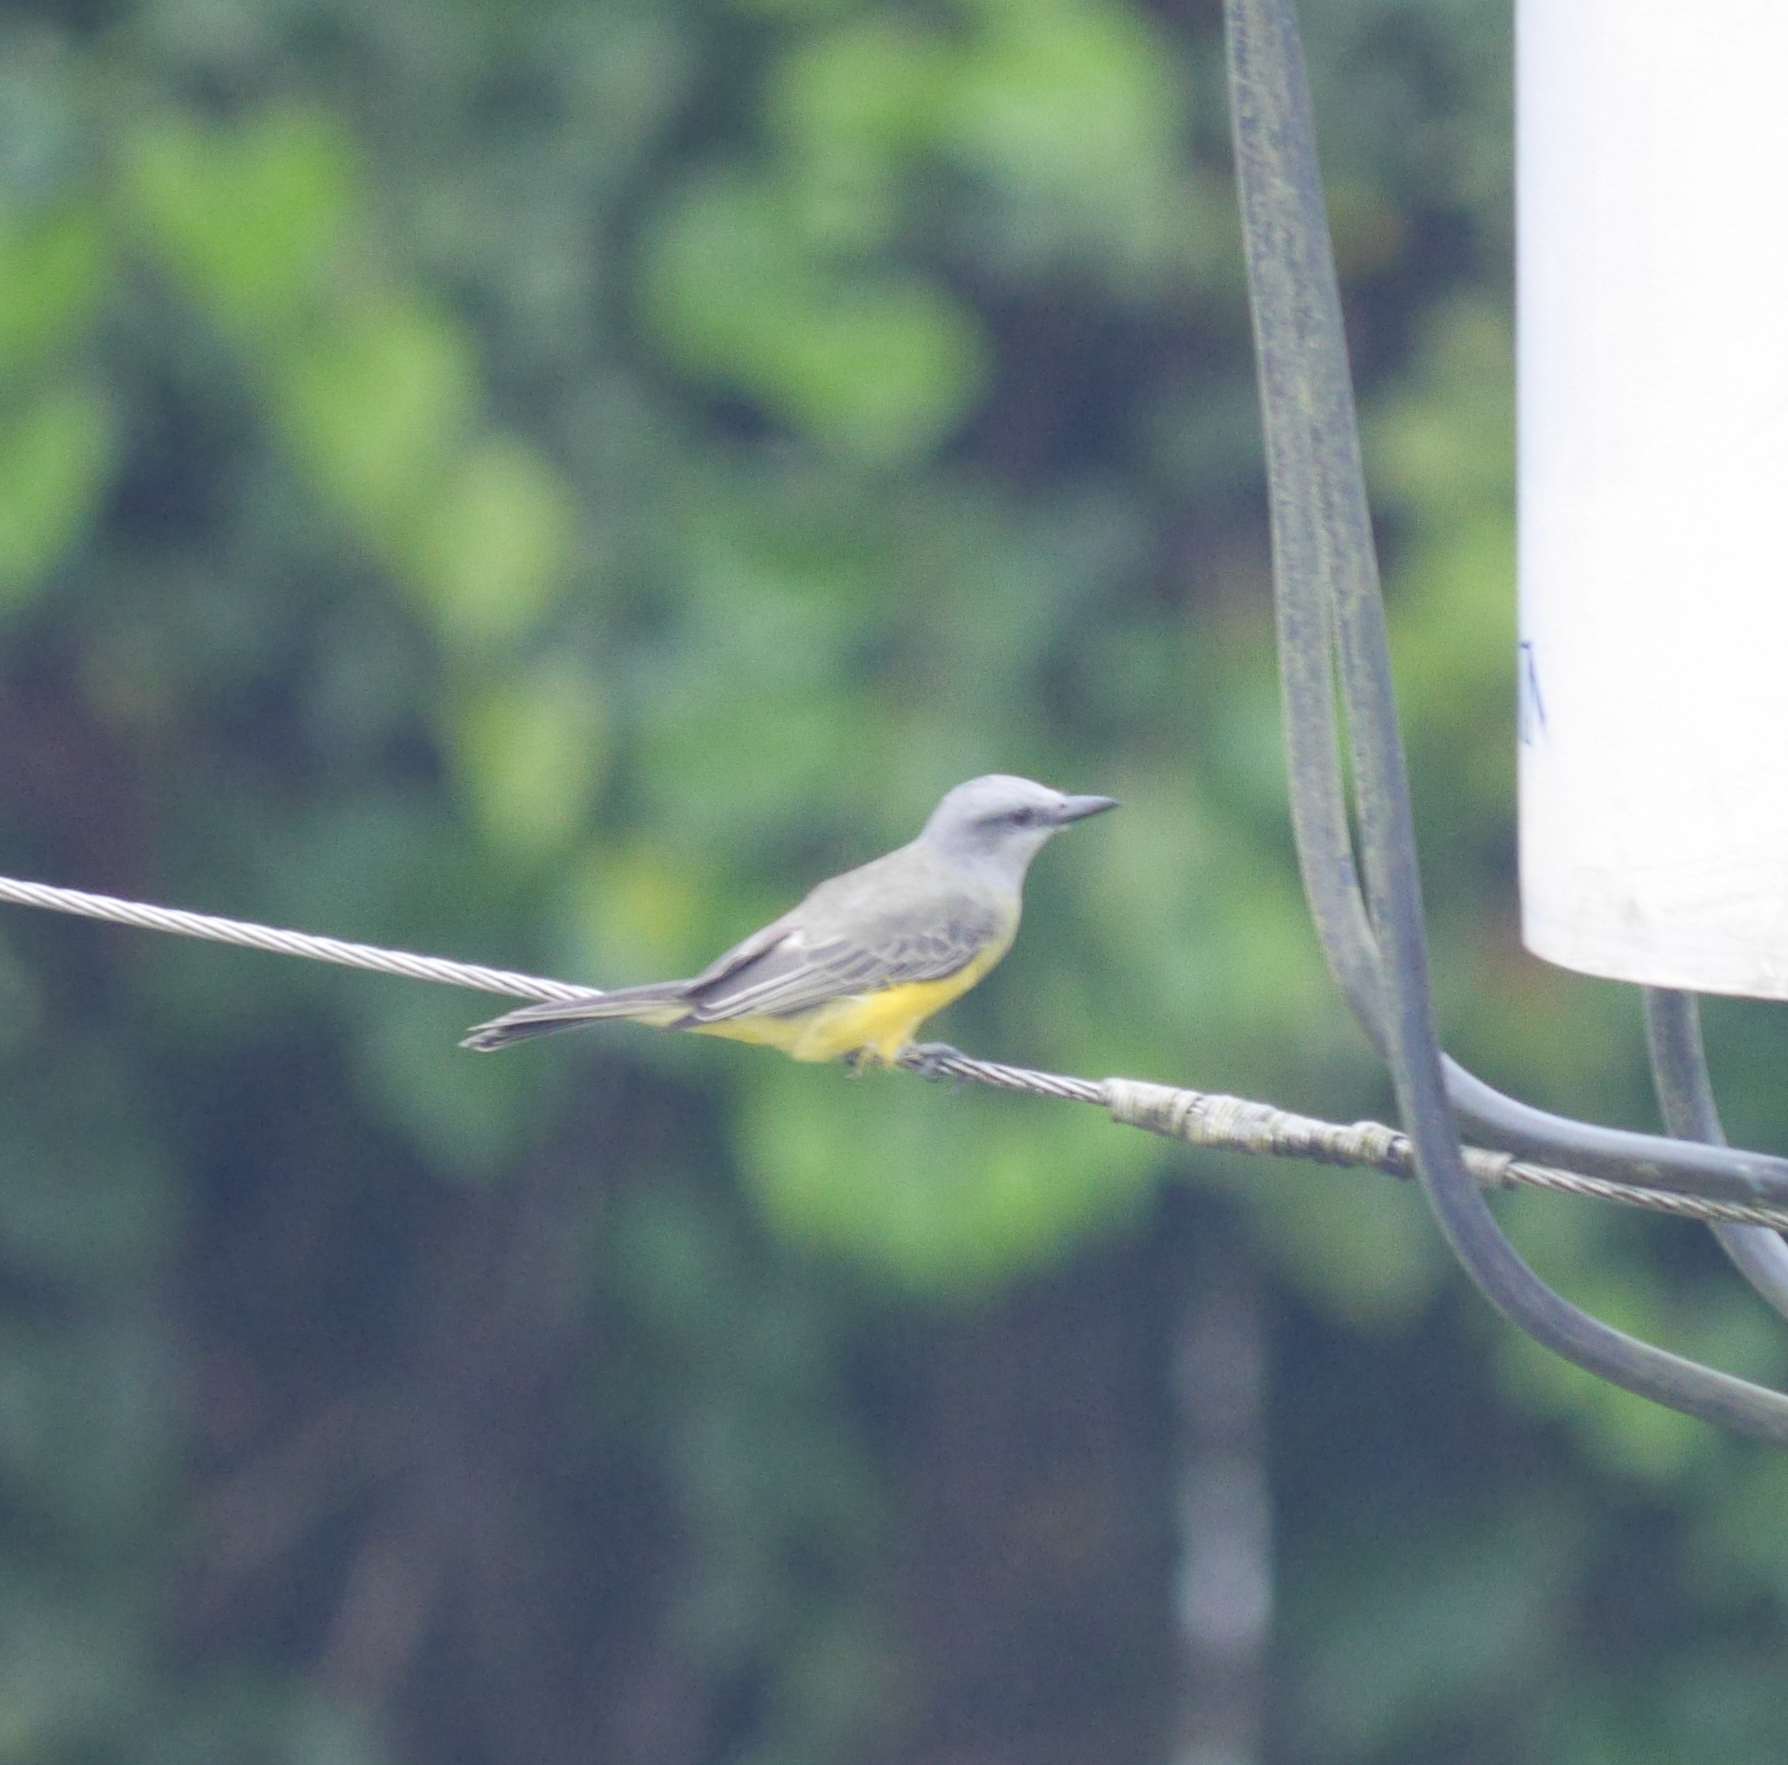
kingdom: Animalia
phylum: Chordata
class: Aves
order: Passeriformes
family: Tyrannidae
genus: Tyrannus
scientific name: Tyrannus melancholicus
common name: Tropical kingbird
